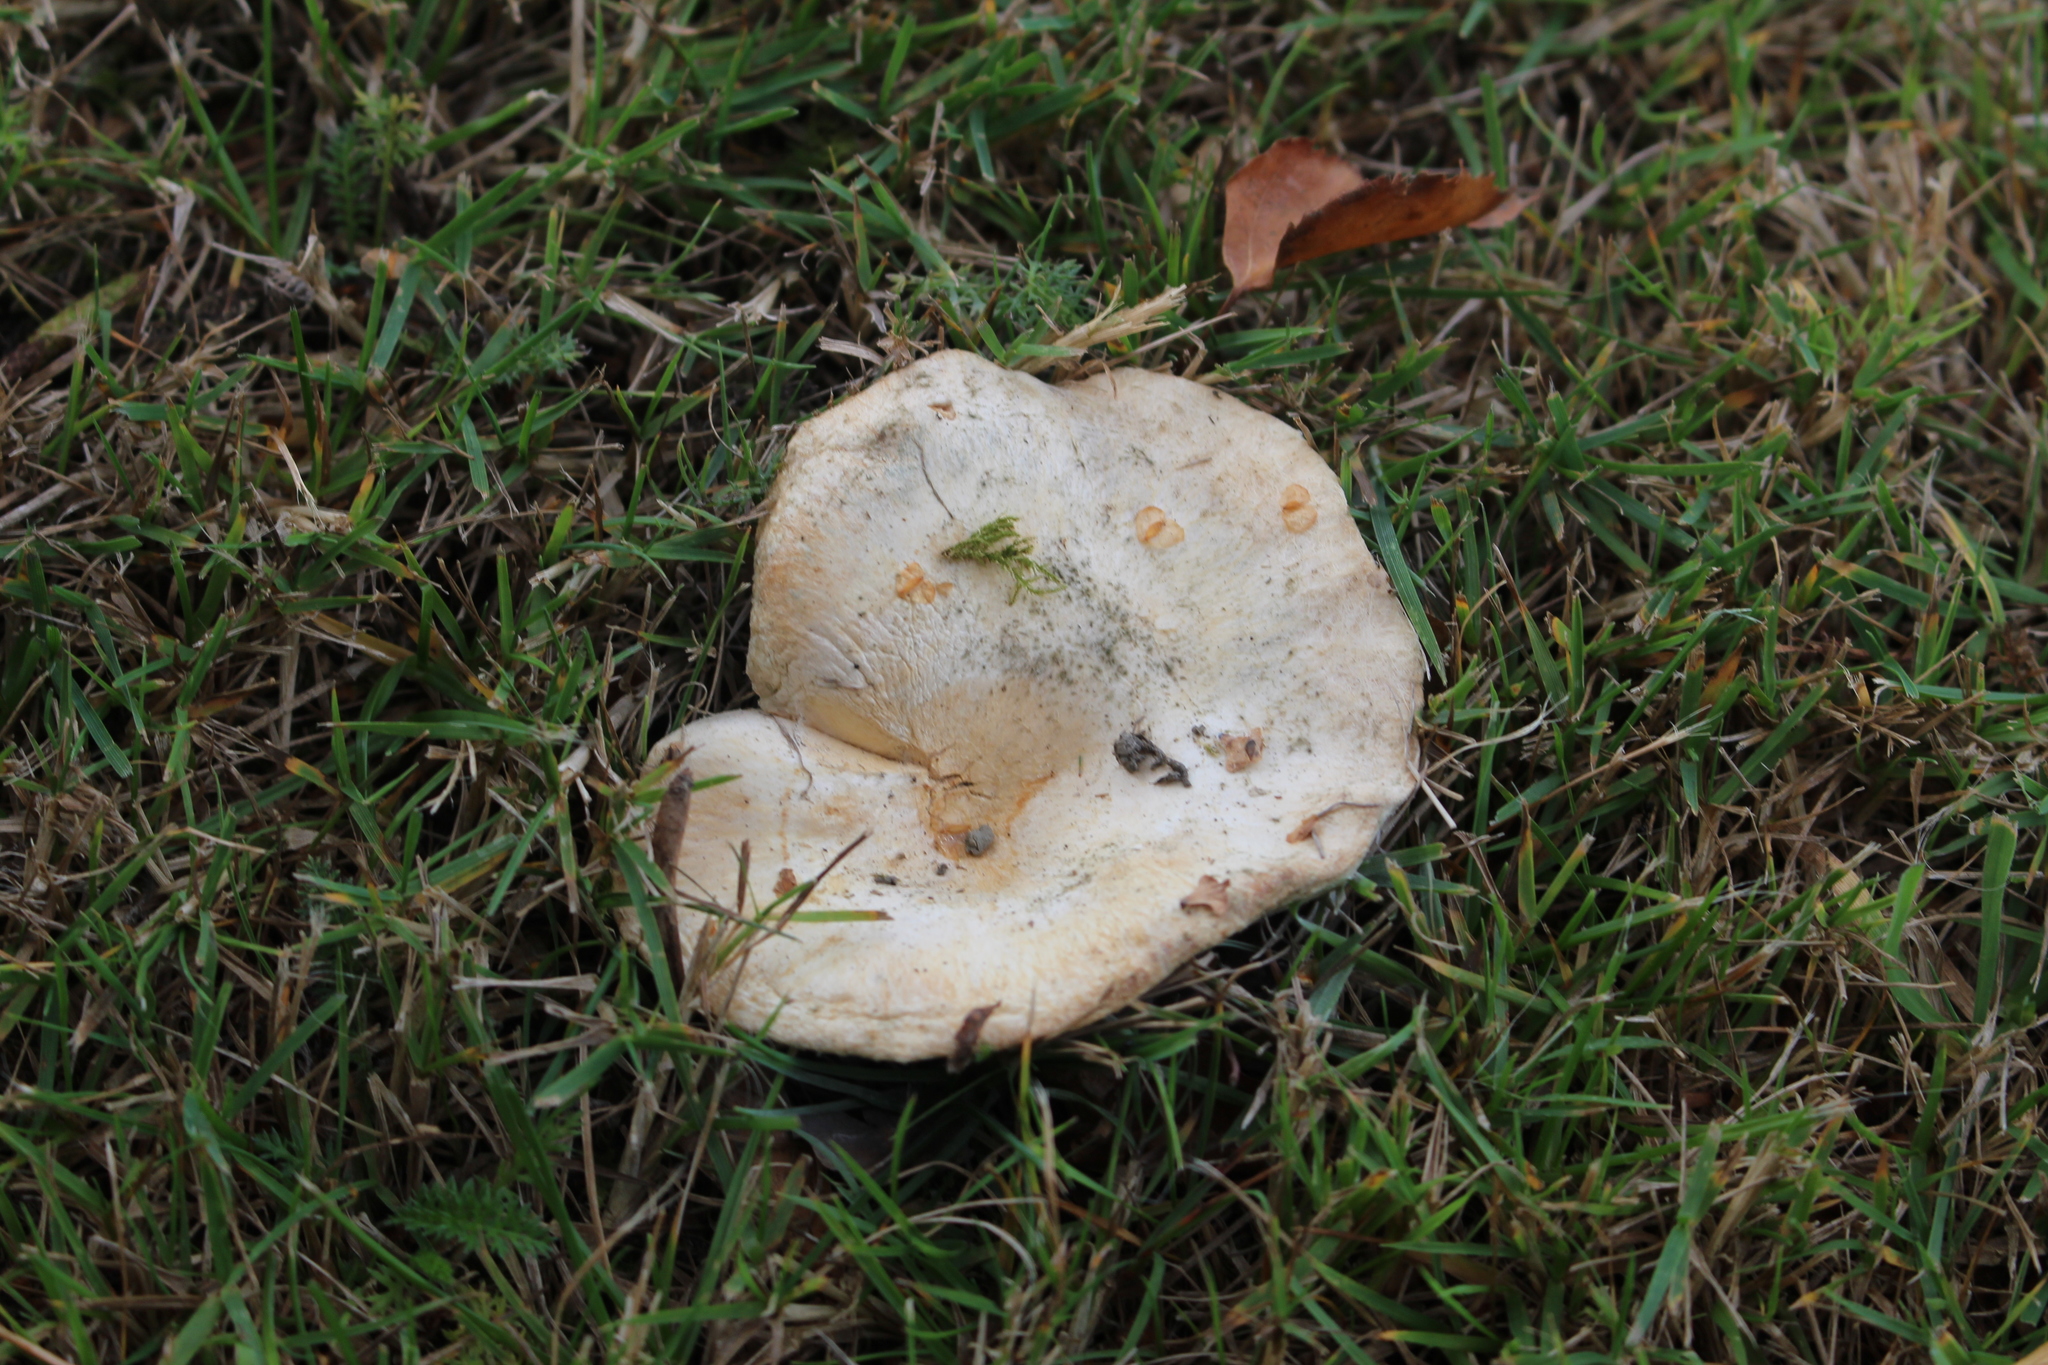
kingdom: Fungi
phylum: Basidiomycota
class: Agaricomycetes
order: Russulales
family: Russulaceae
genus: Lactarius
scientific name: Lactarius pubescens
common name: Bearded milkcap
